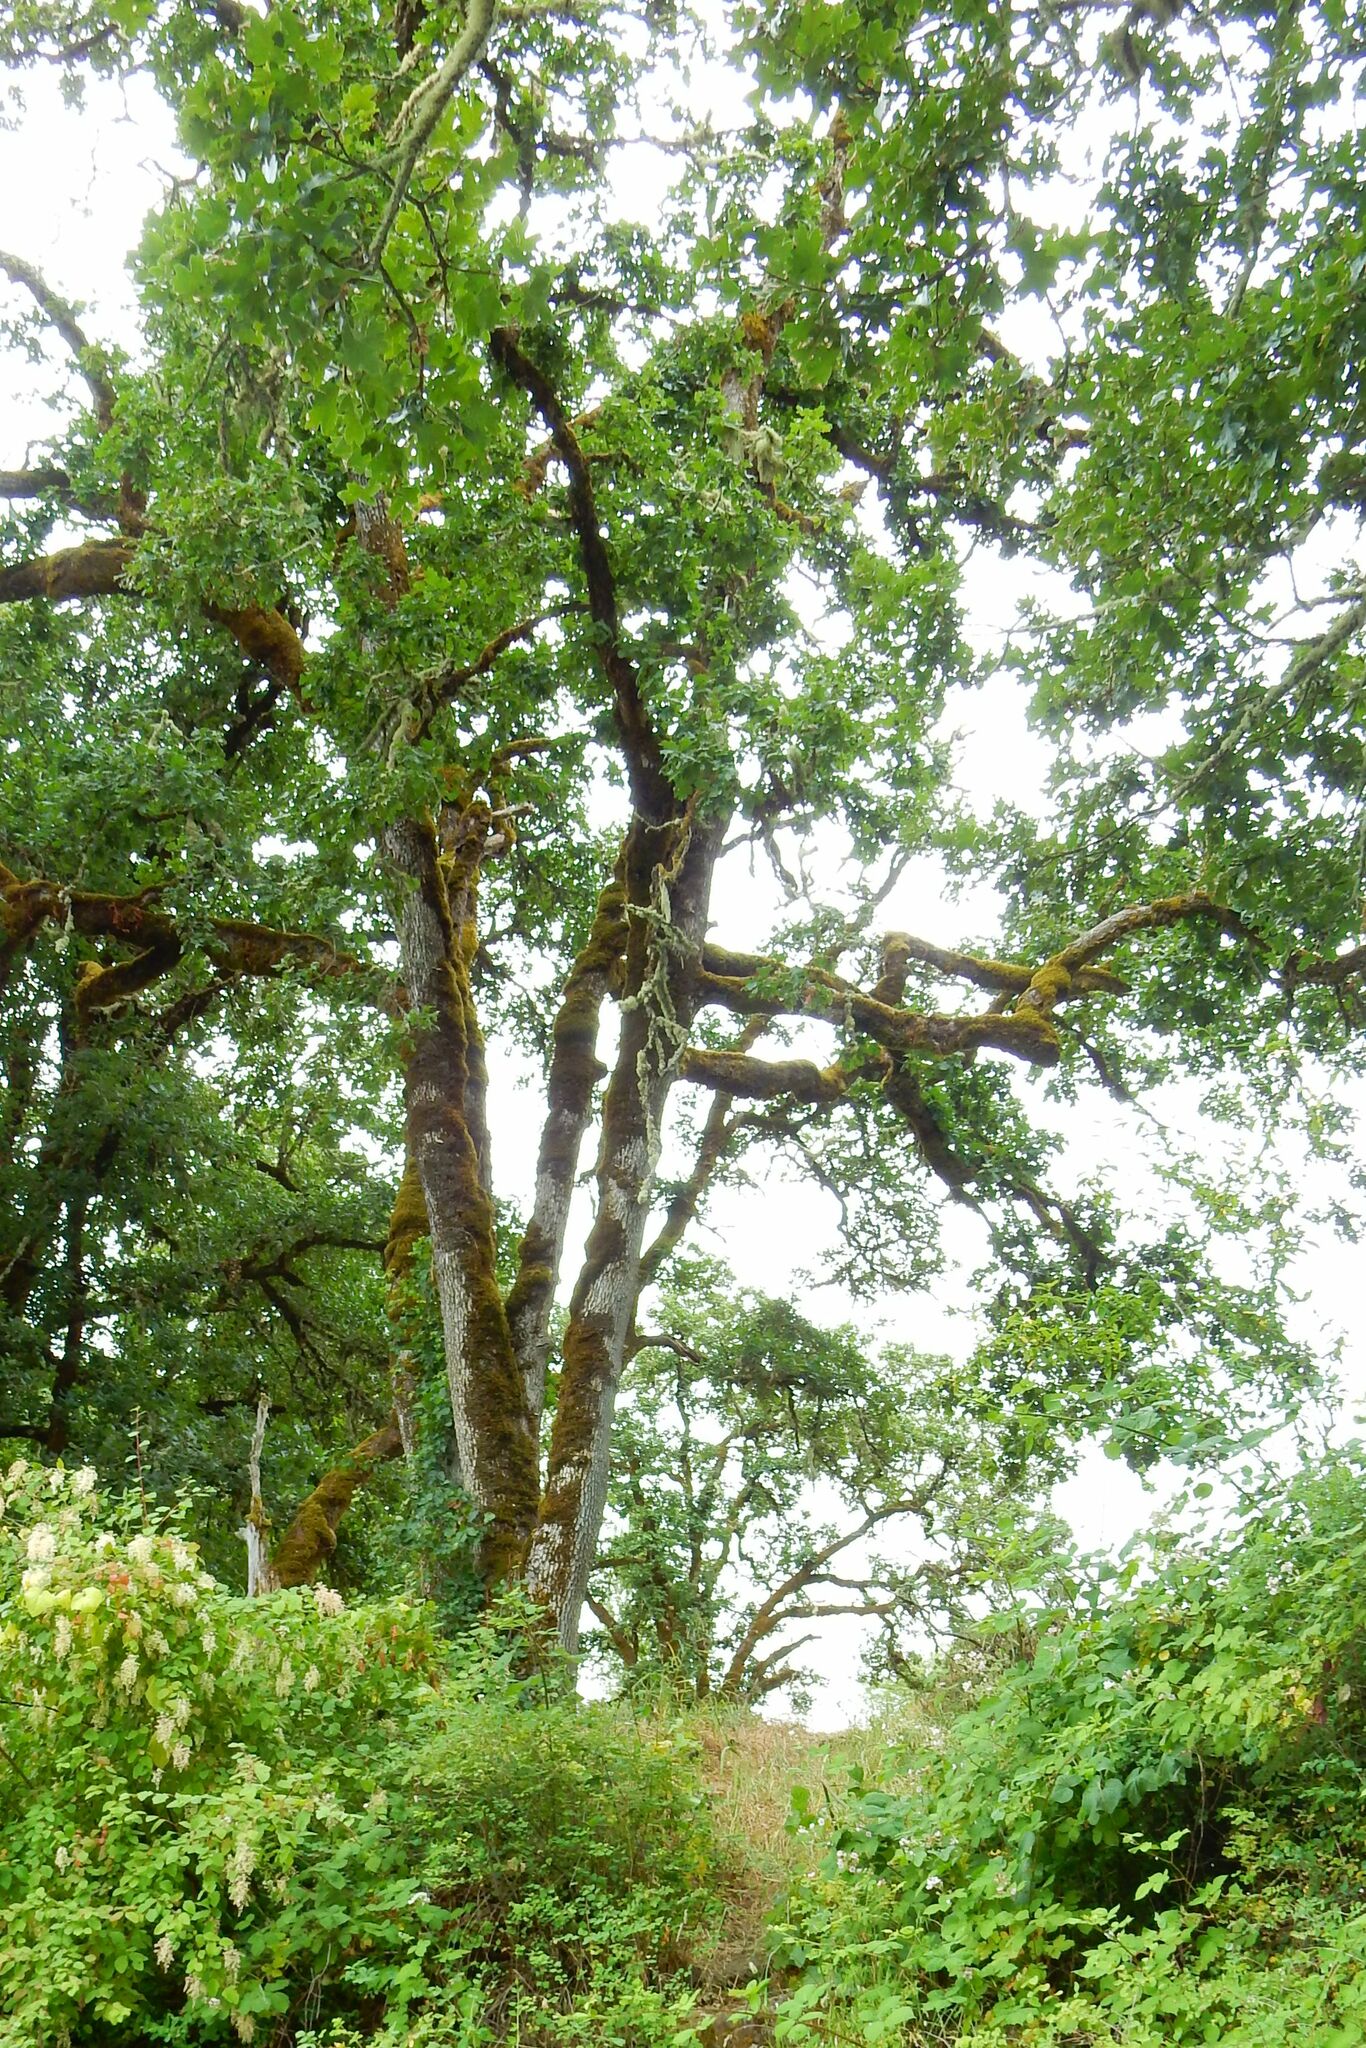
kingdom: Plantae
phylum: Tracheophyta
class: Magnoliopsida
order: Fagales
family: Fagaceae
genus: Quercus
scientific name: Quercus garryana
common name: Garry oak
